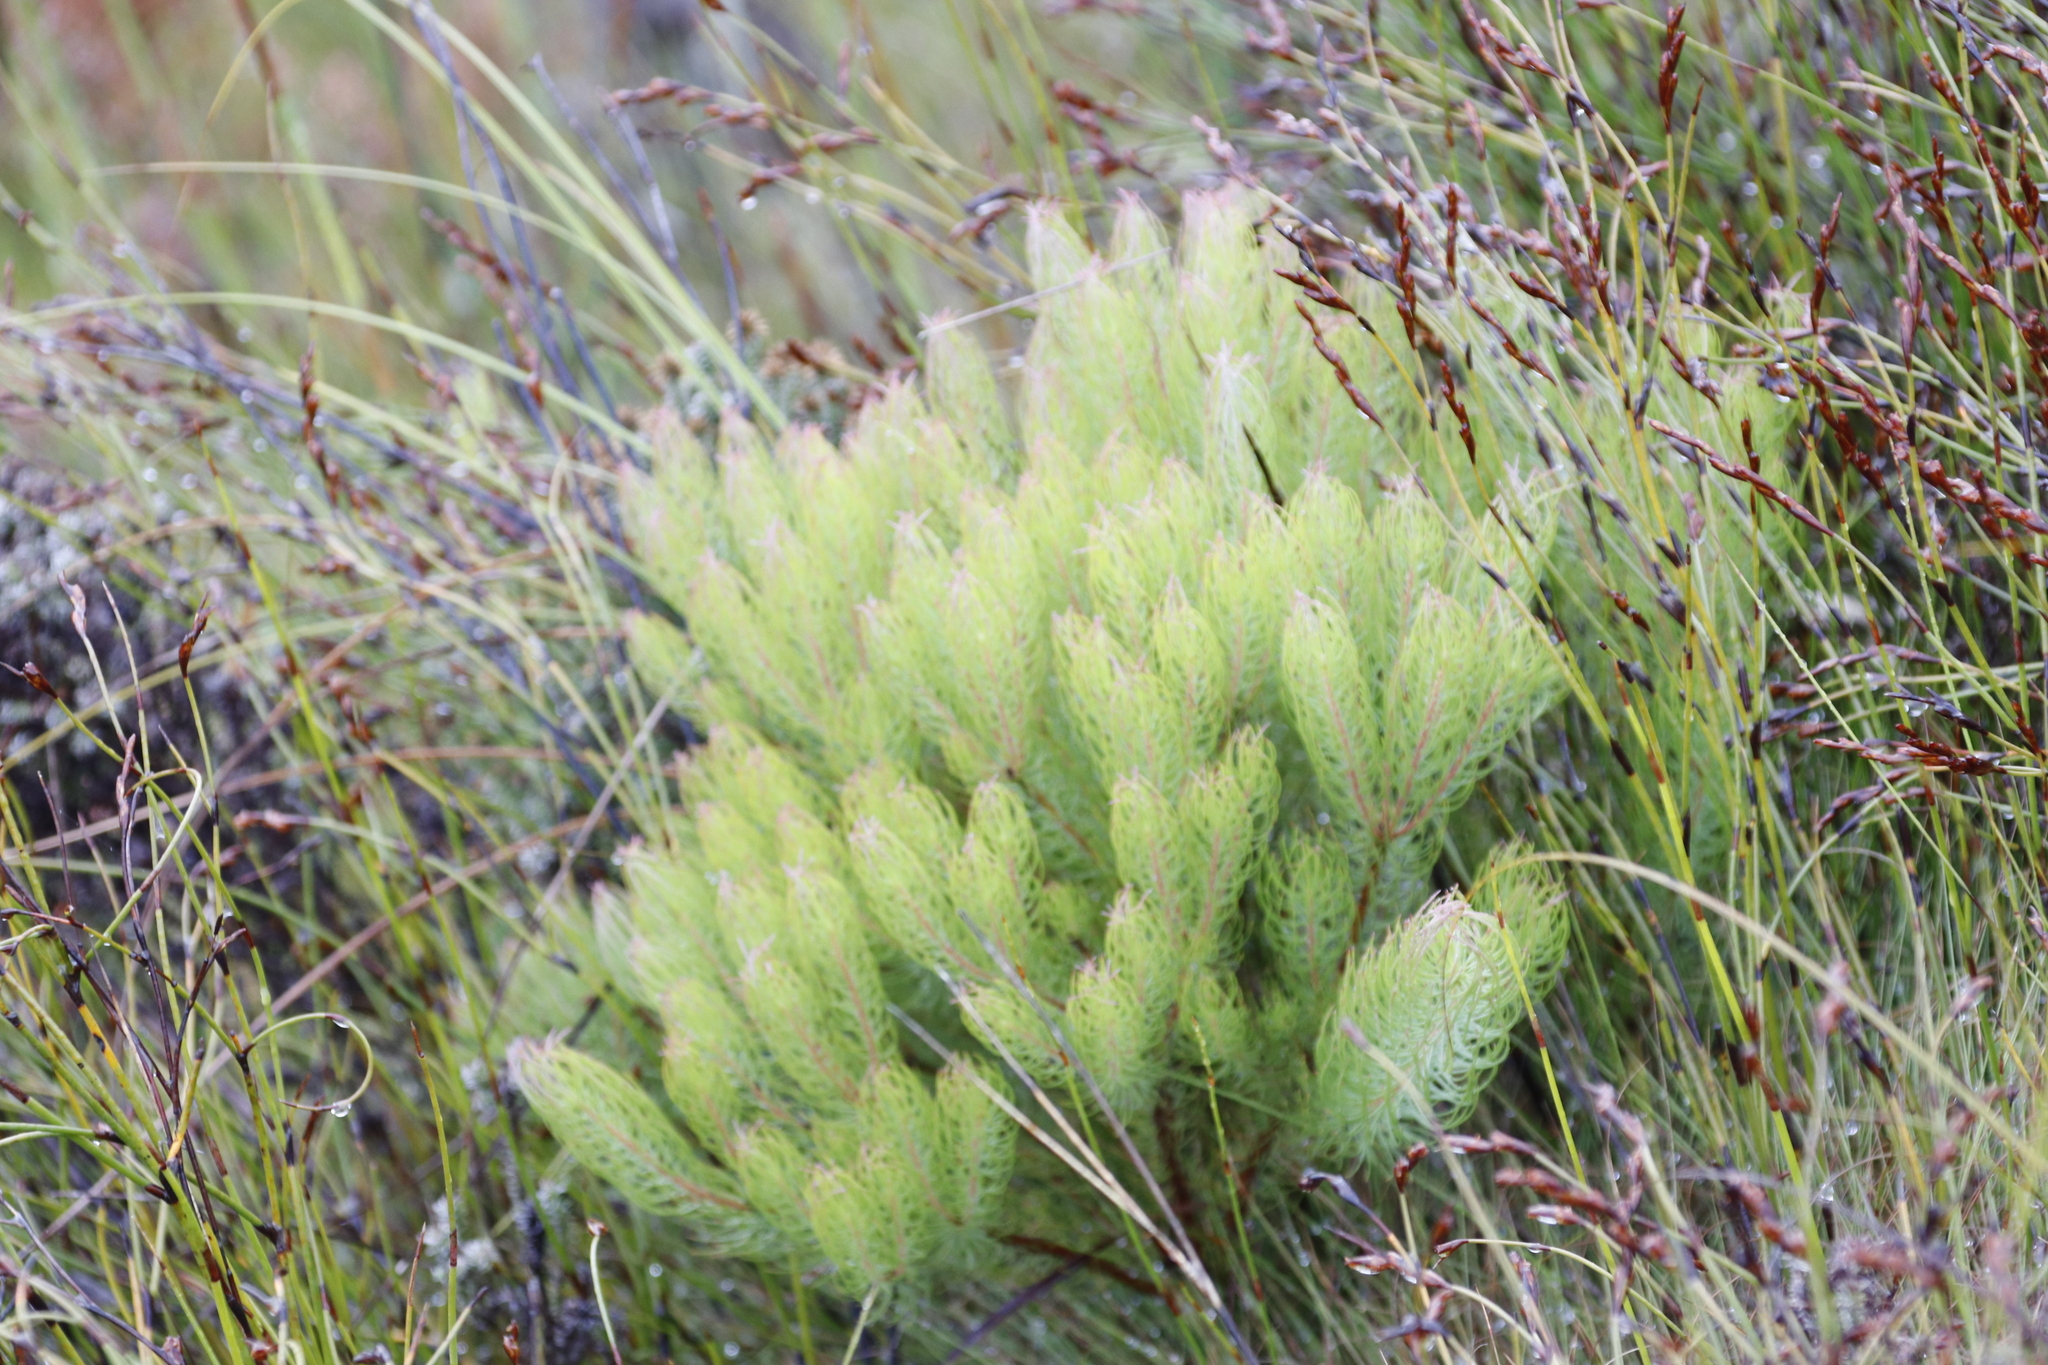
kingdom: Plantae
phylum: Tracheophyta
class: Magnoliopsida
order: Proteales
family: Proteaceae
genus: Spatalla
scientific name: Spatalla setacea
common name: Needle-leaf spoon
